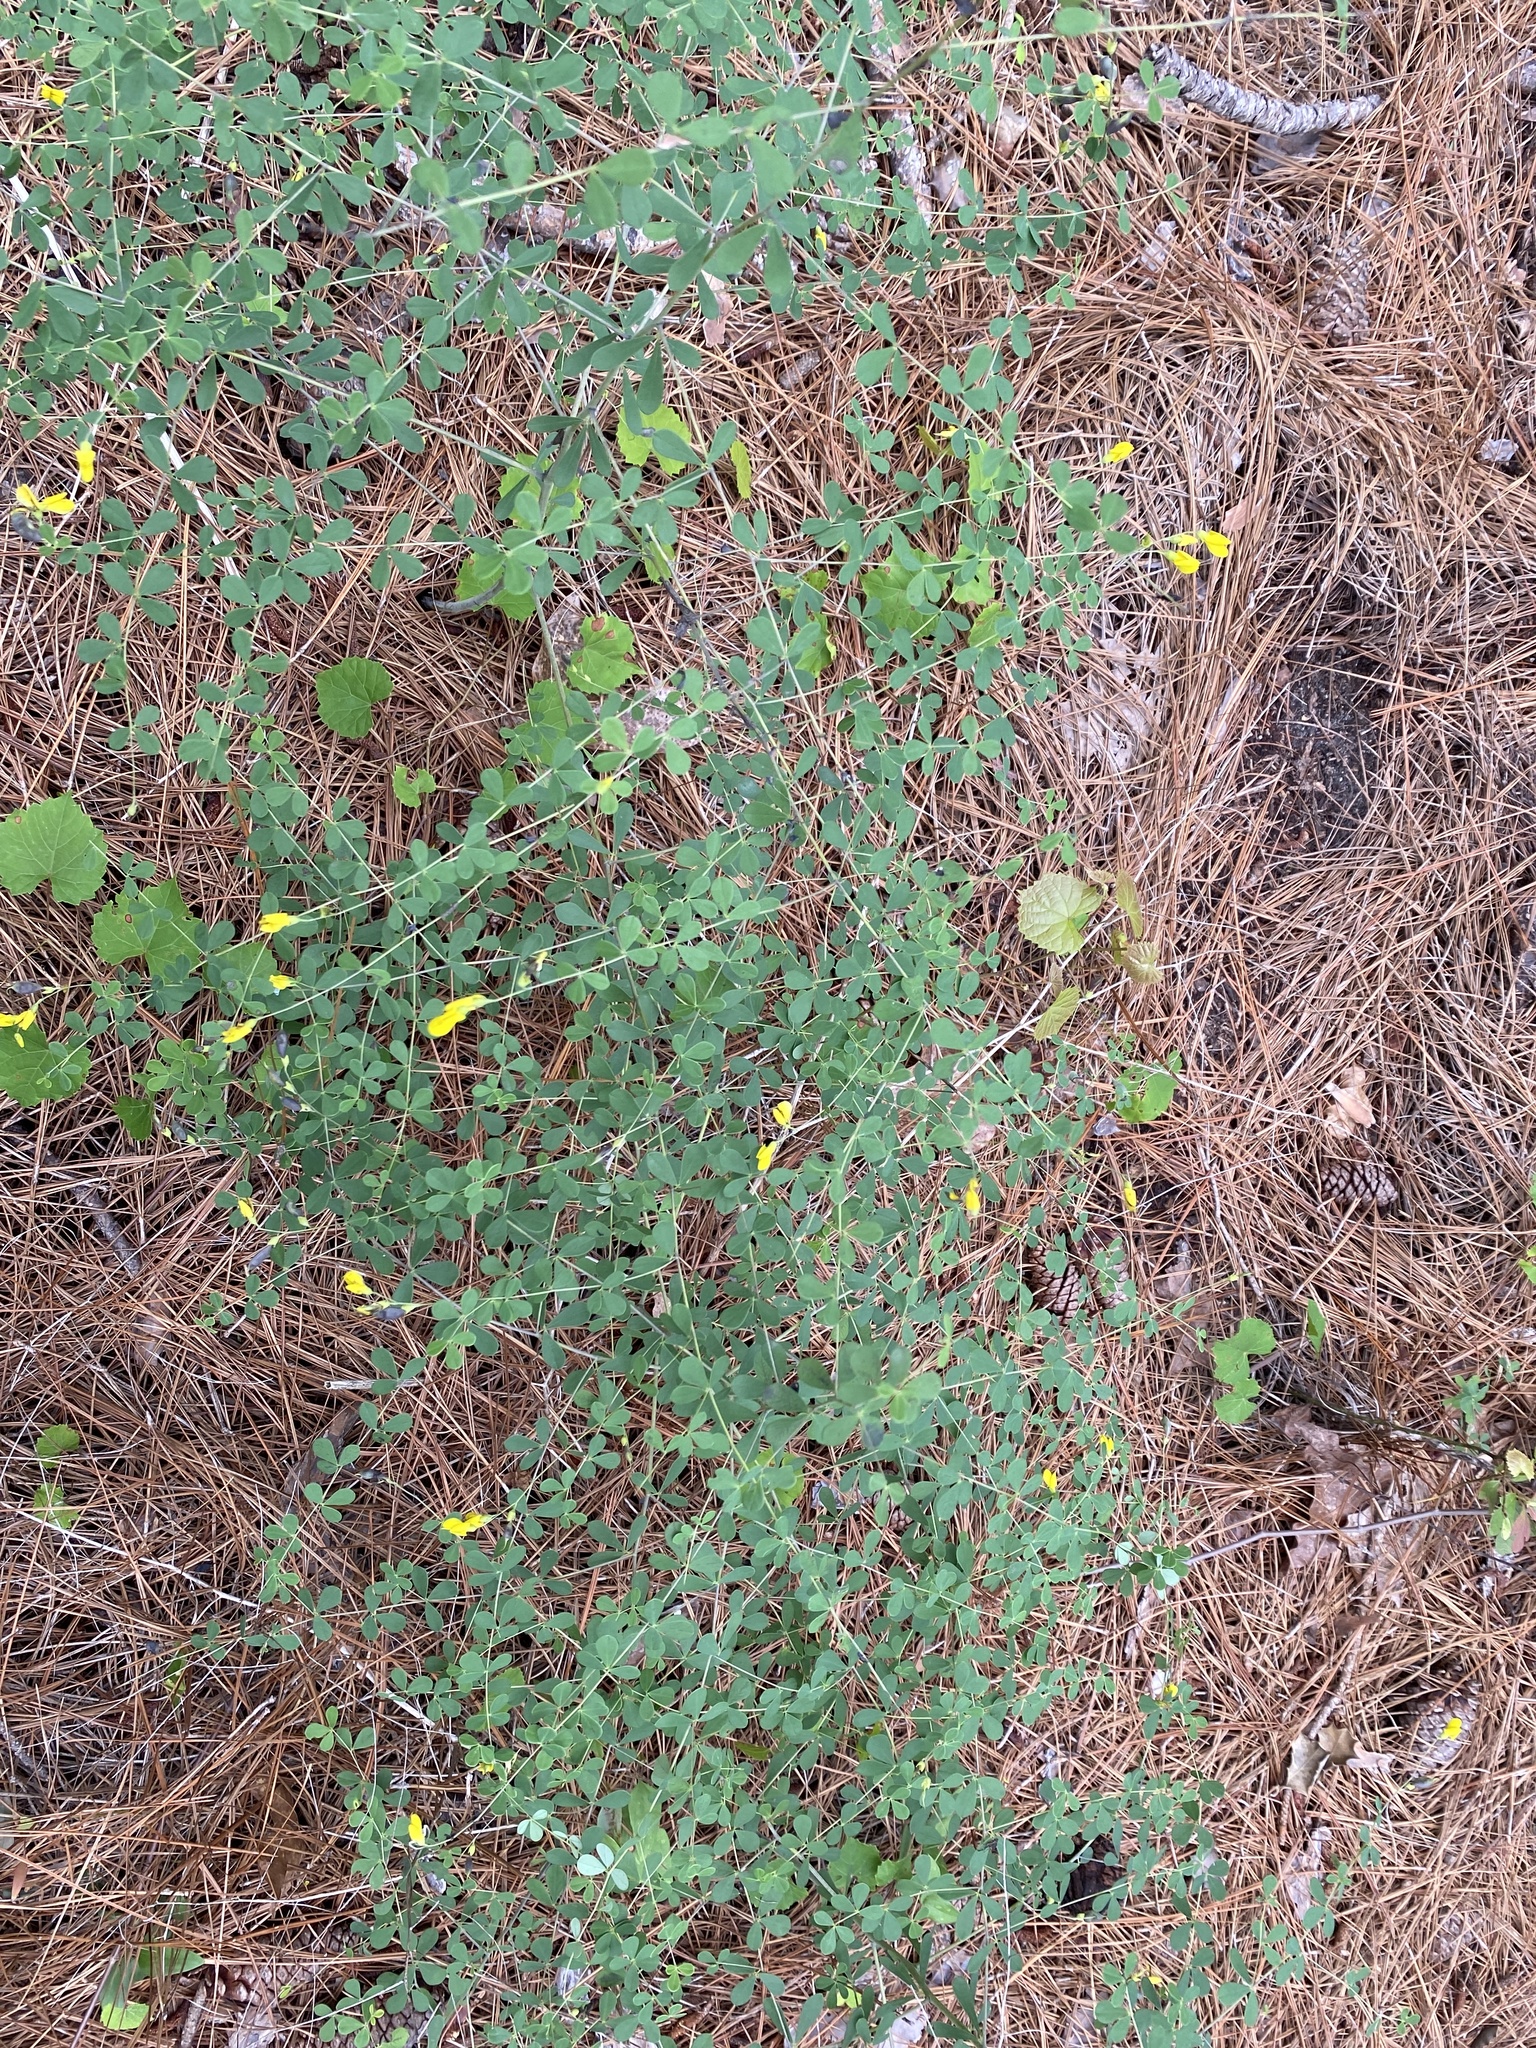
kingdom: Plantae
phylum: Tracheophyta
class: Magnoliopsida
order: Fabales
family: Fabaceae
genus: Baptisia
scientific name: Baptisia tinctoria
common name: Wild indigo
